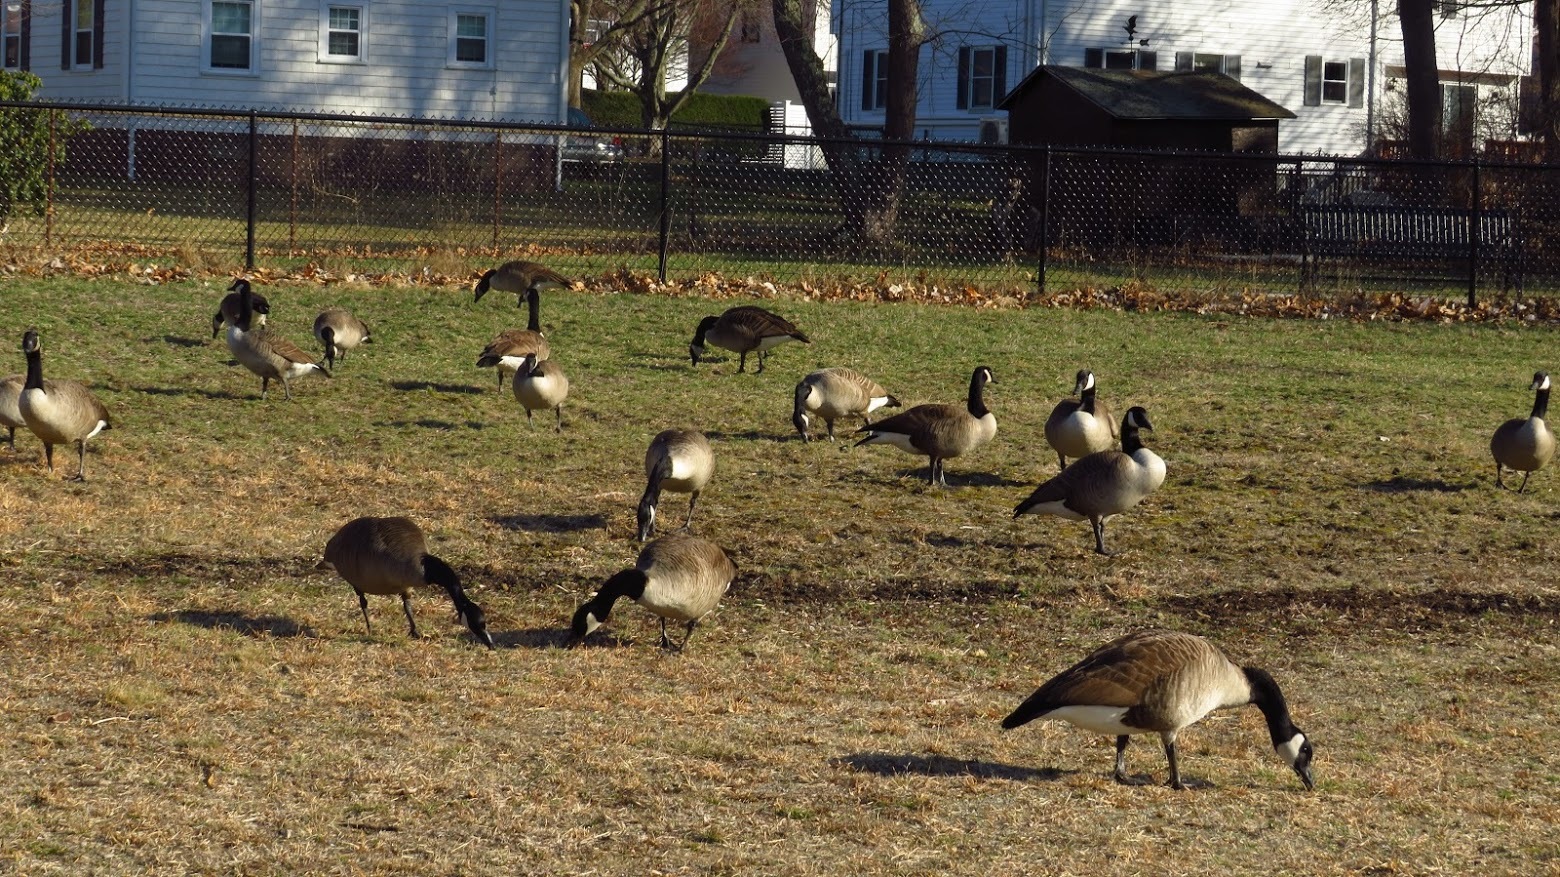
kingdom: Animalia
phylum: Chordata
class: Aves
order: Anseriformes
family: Anatidae
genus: Branta
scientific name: Branta canadensis
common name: Canada goose
